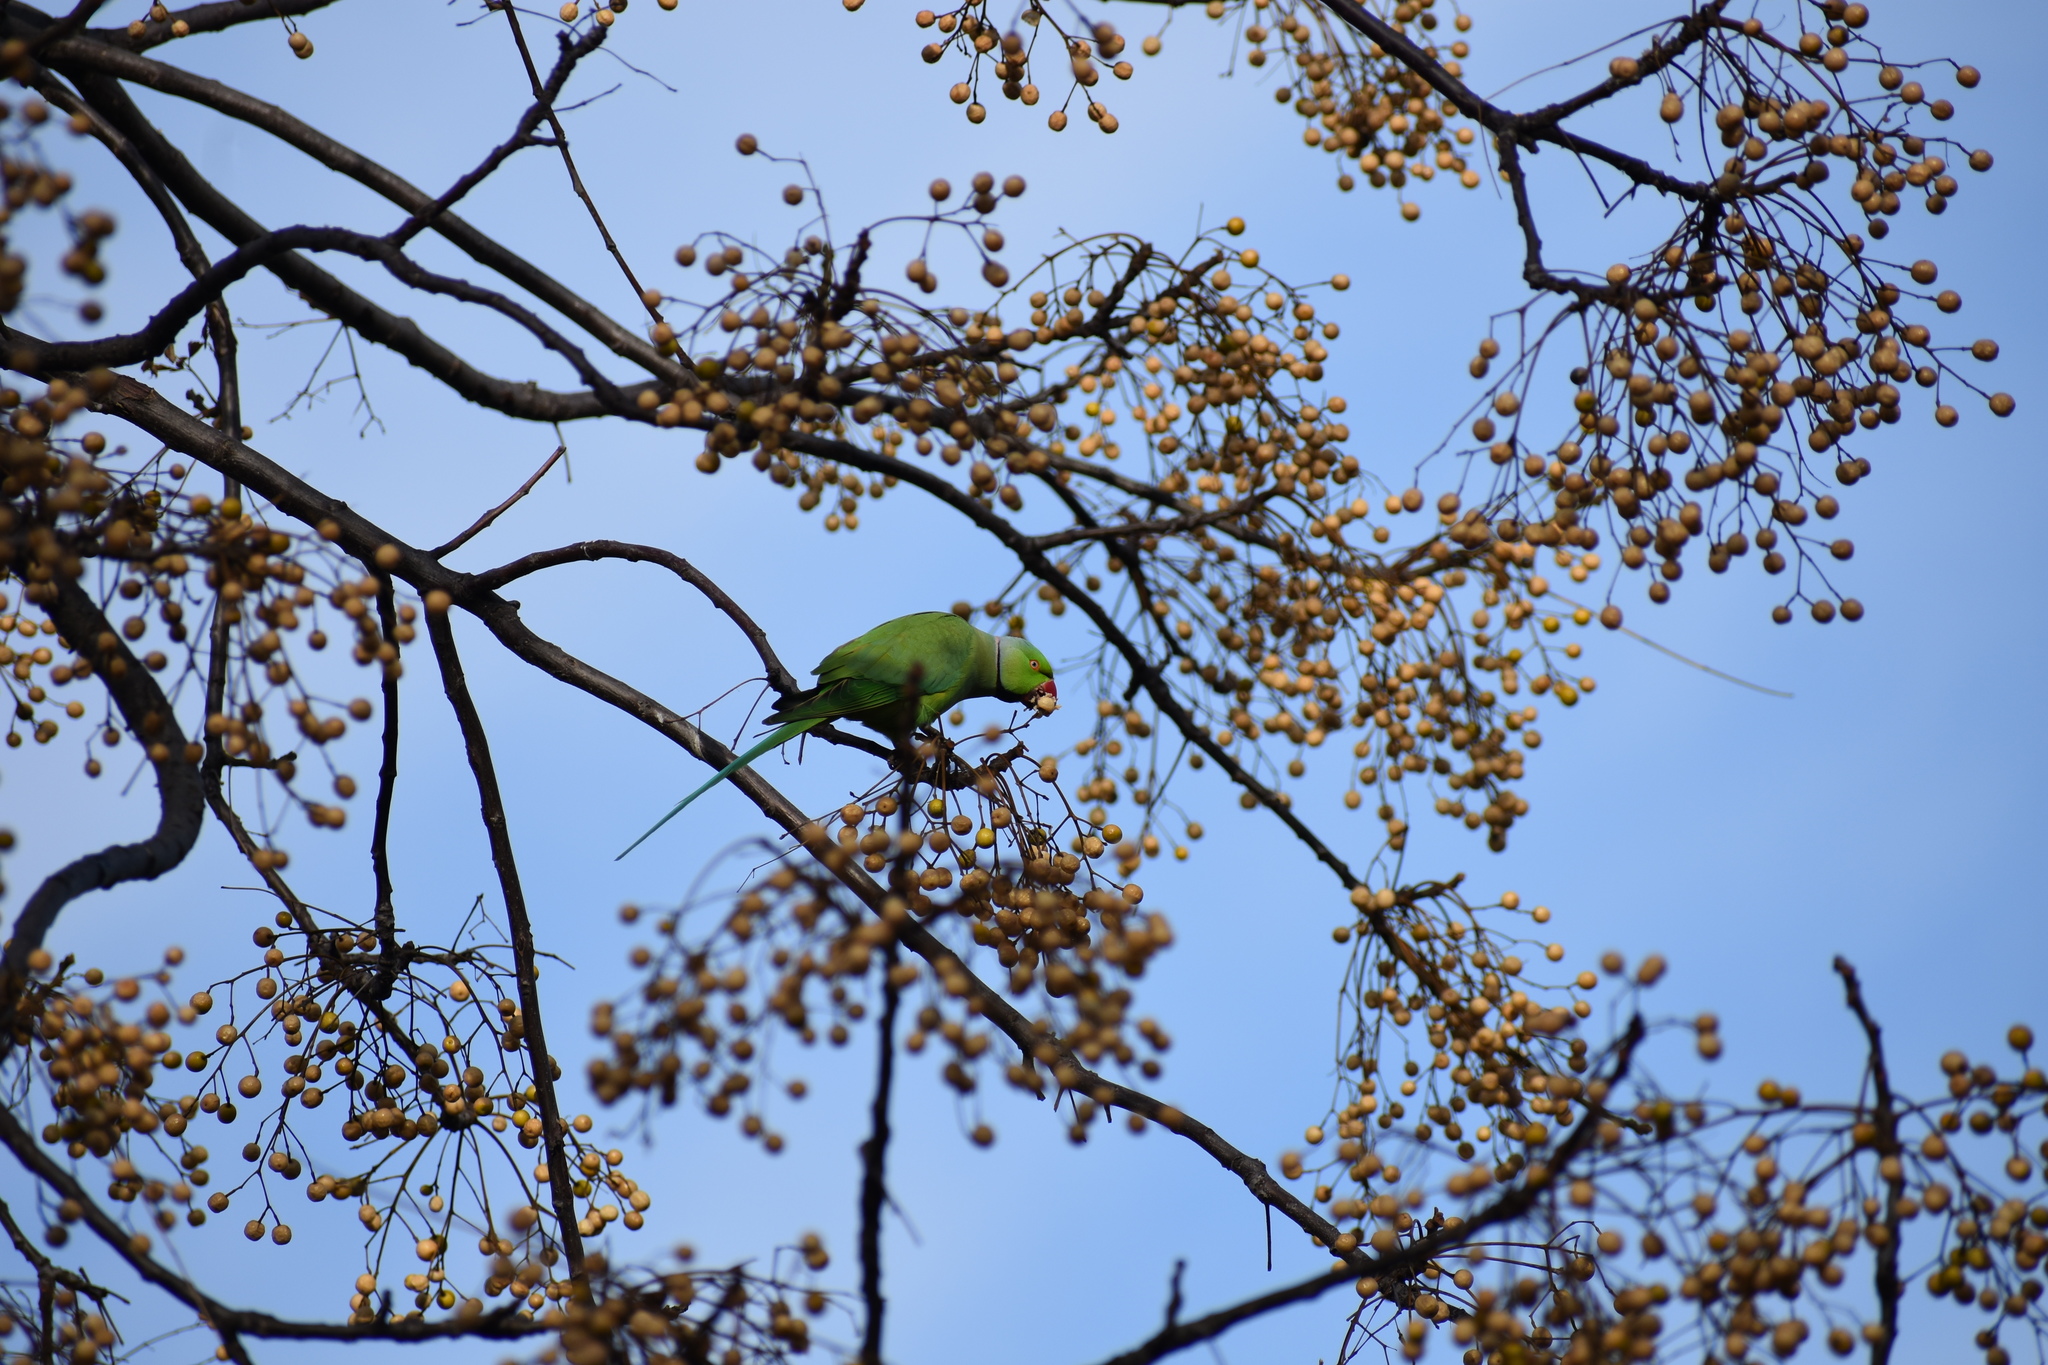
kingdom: Animalia
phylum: Chordata
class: Aves
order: Psittaciformes
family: Psittacidae
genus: Psittacula
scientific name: Psittacula krameri
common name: Rose-ringed parakeet
